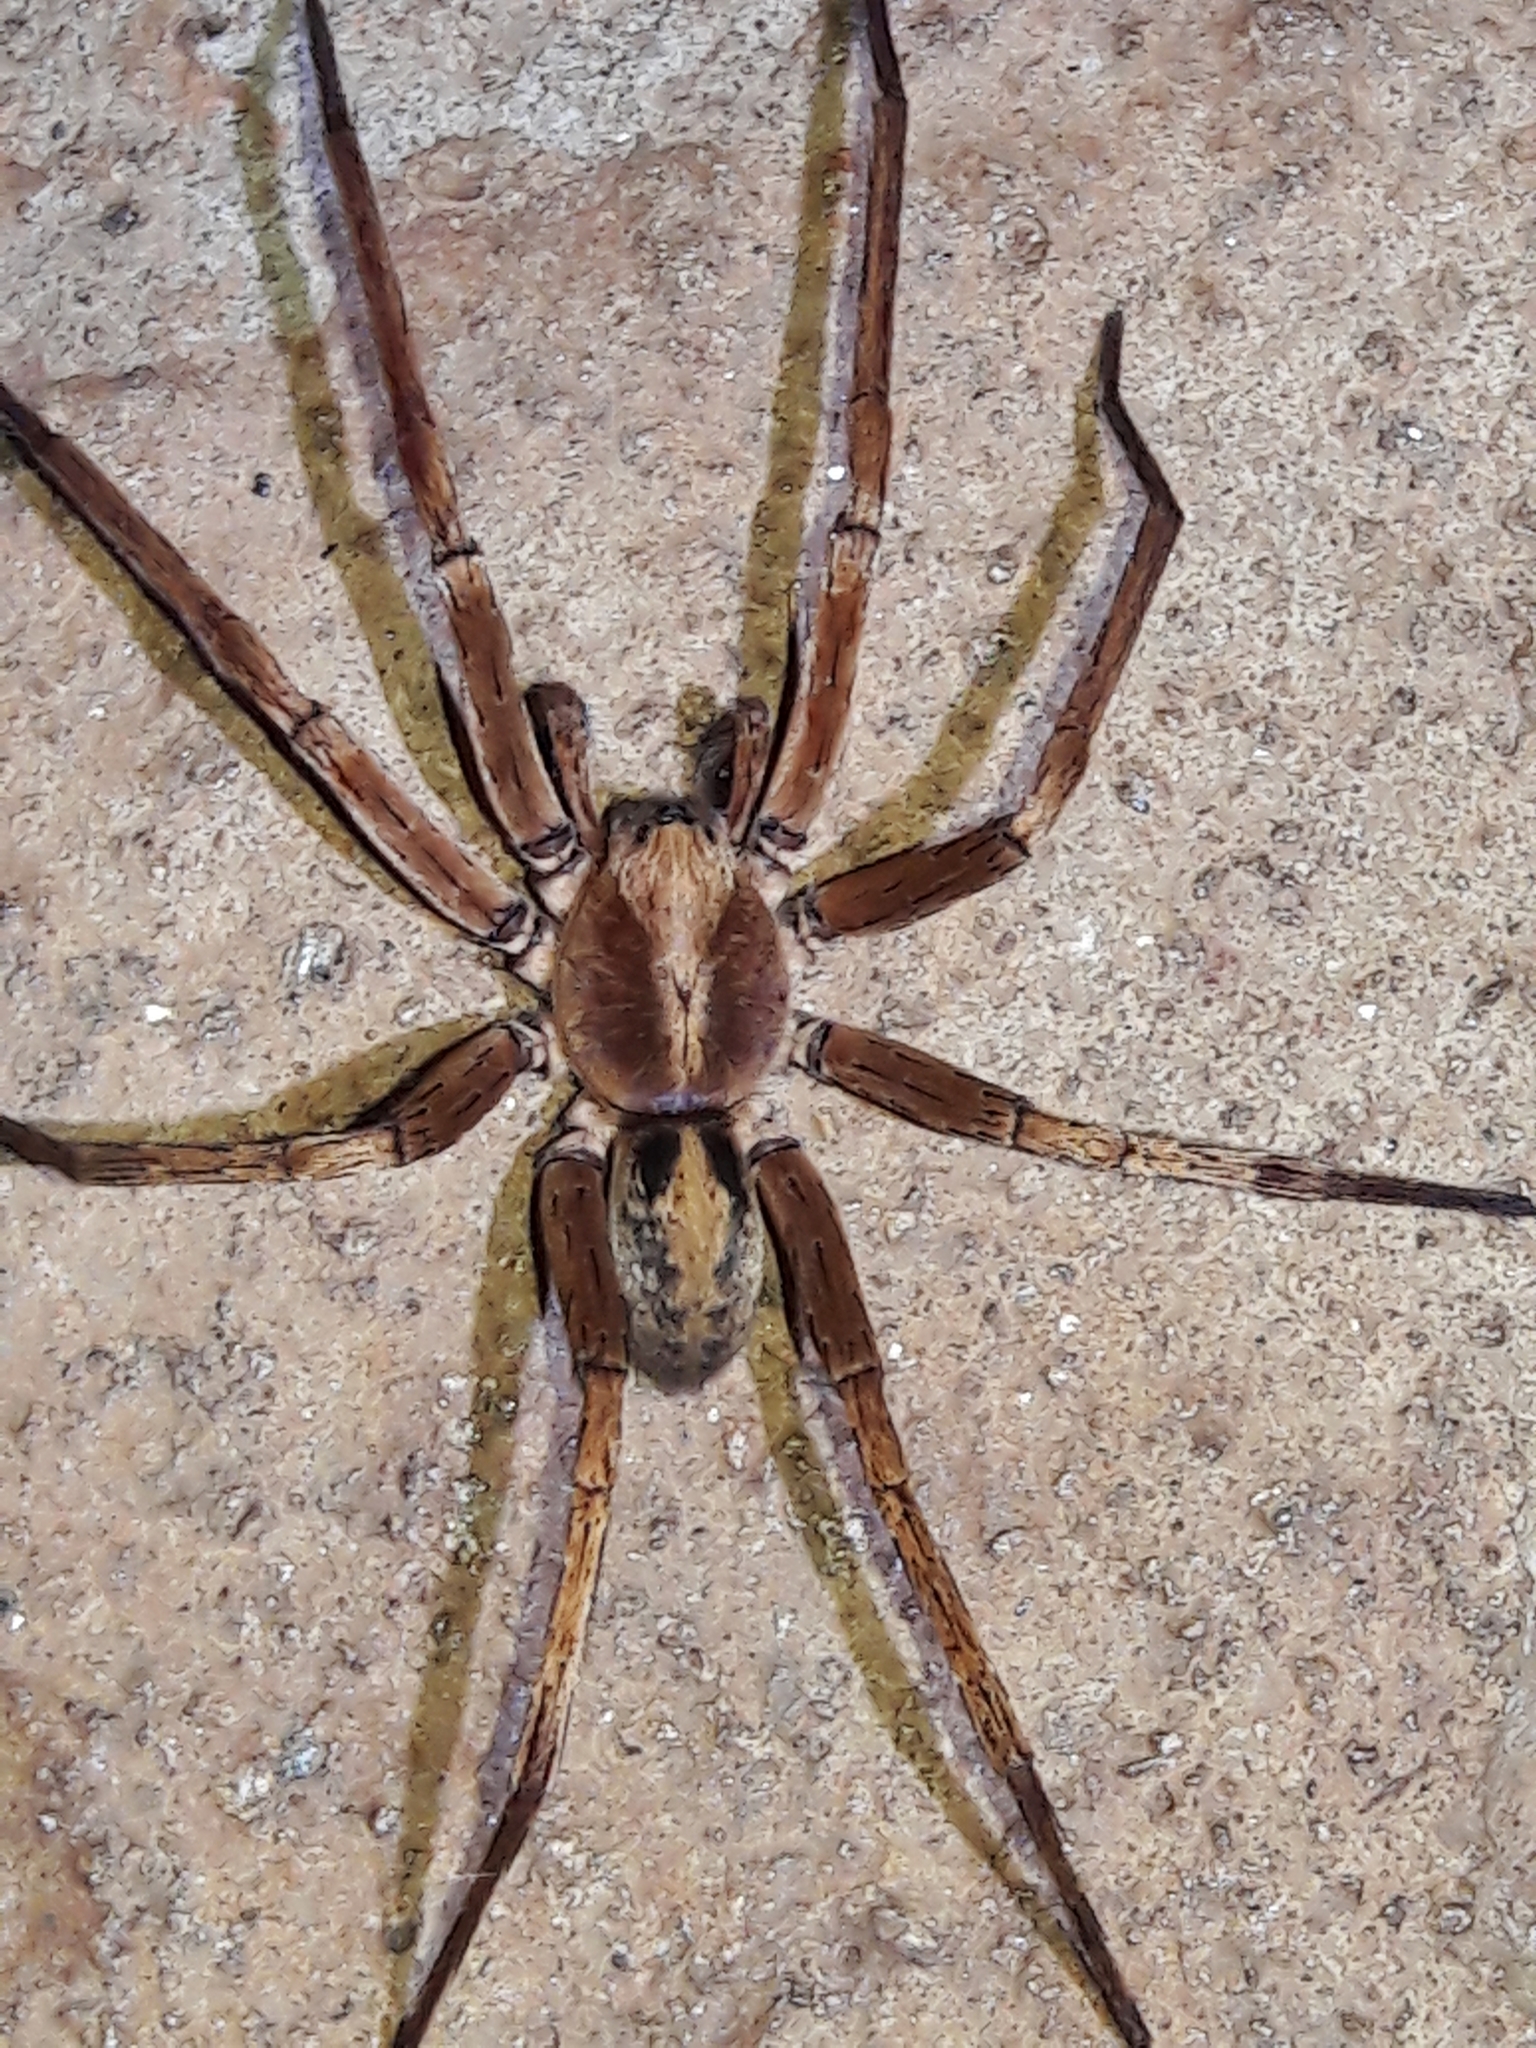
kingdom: Animalia
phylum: Arthropoda
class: Arachnida
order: Araneae
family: Ctenidae
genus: Isoctenus
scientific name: Isoctenus coxalis
